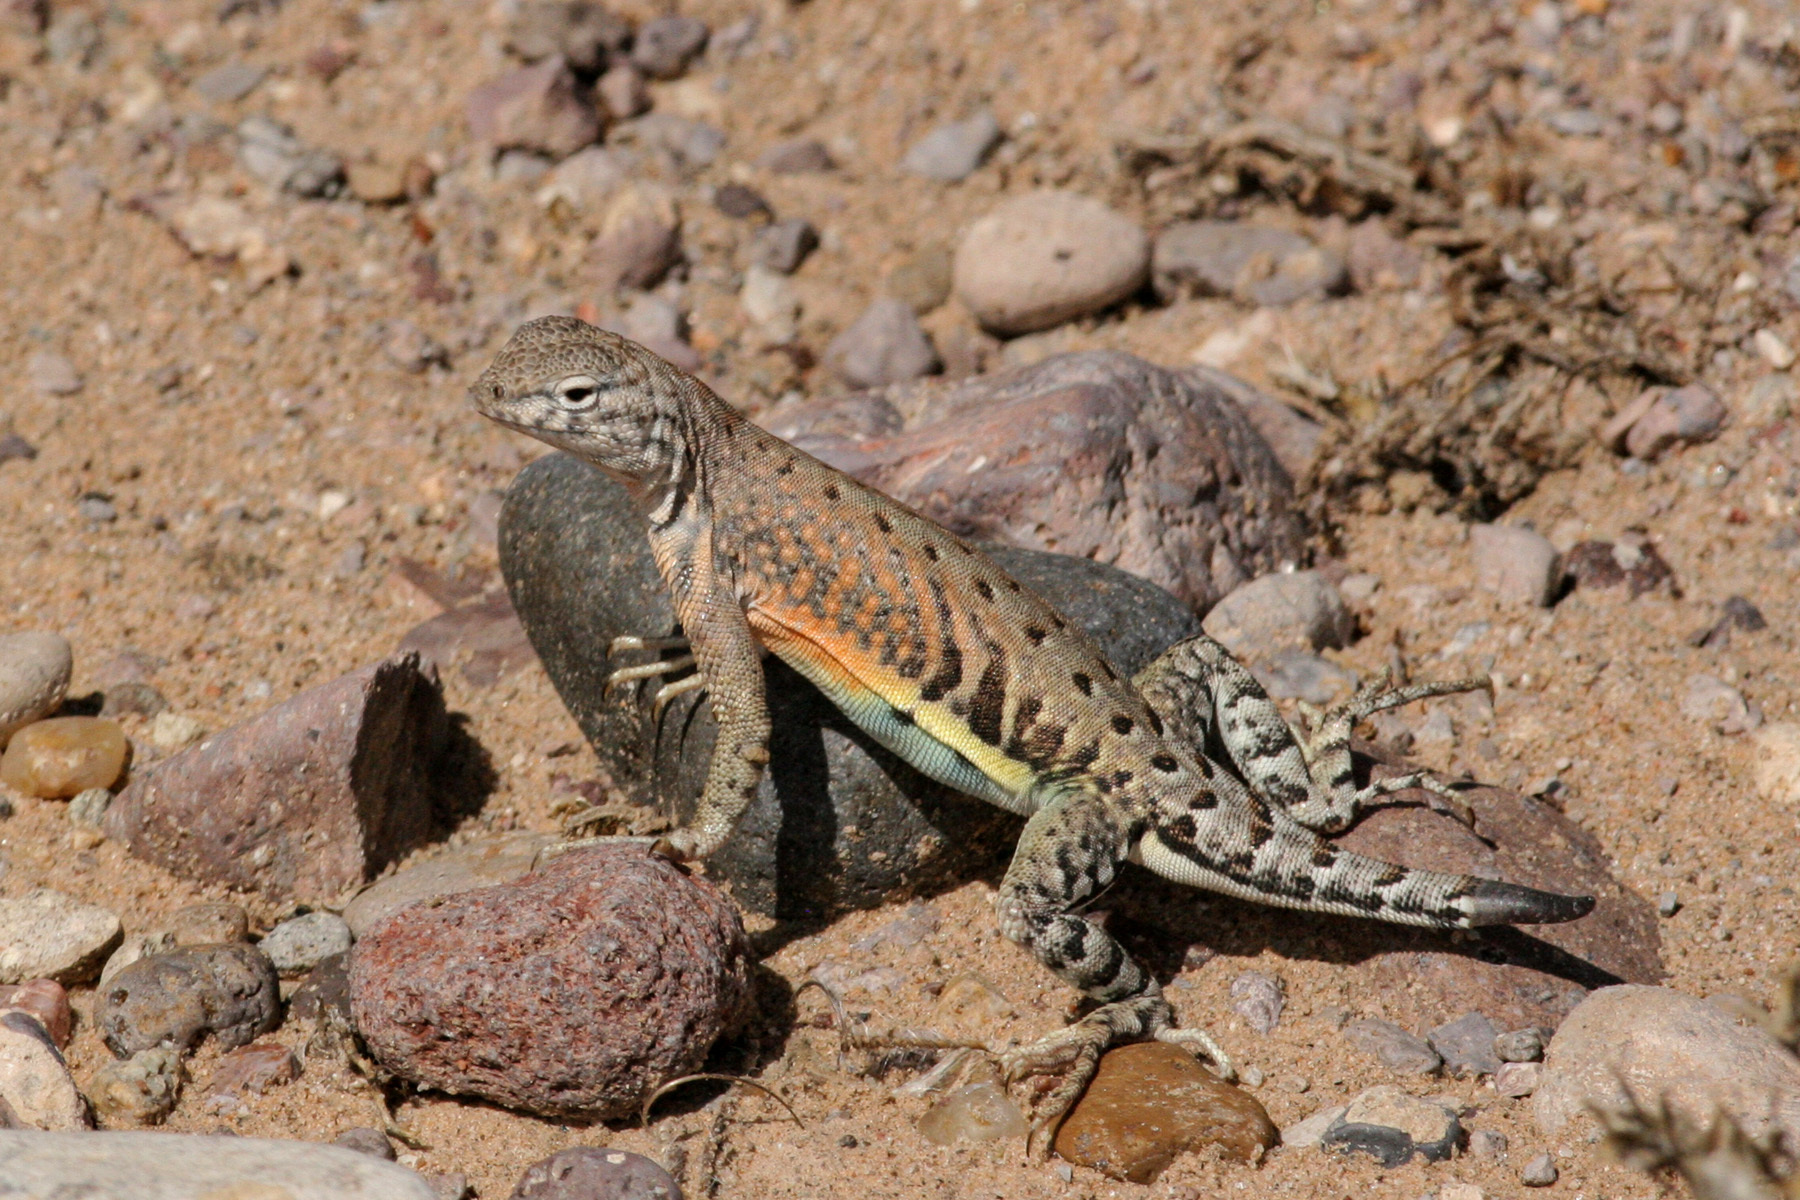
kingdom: Animalia
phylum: Chordata
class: Squamata
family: Phrynosomatidae
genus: Cophosaurus
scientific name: Cophosaurus texanus
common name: Greater earless lizard
